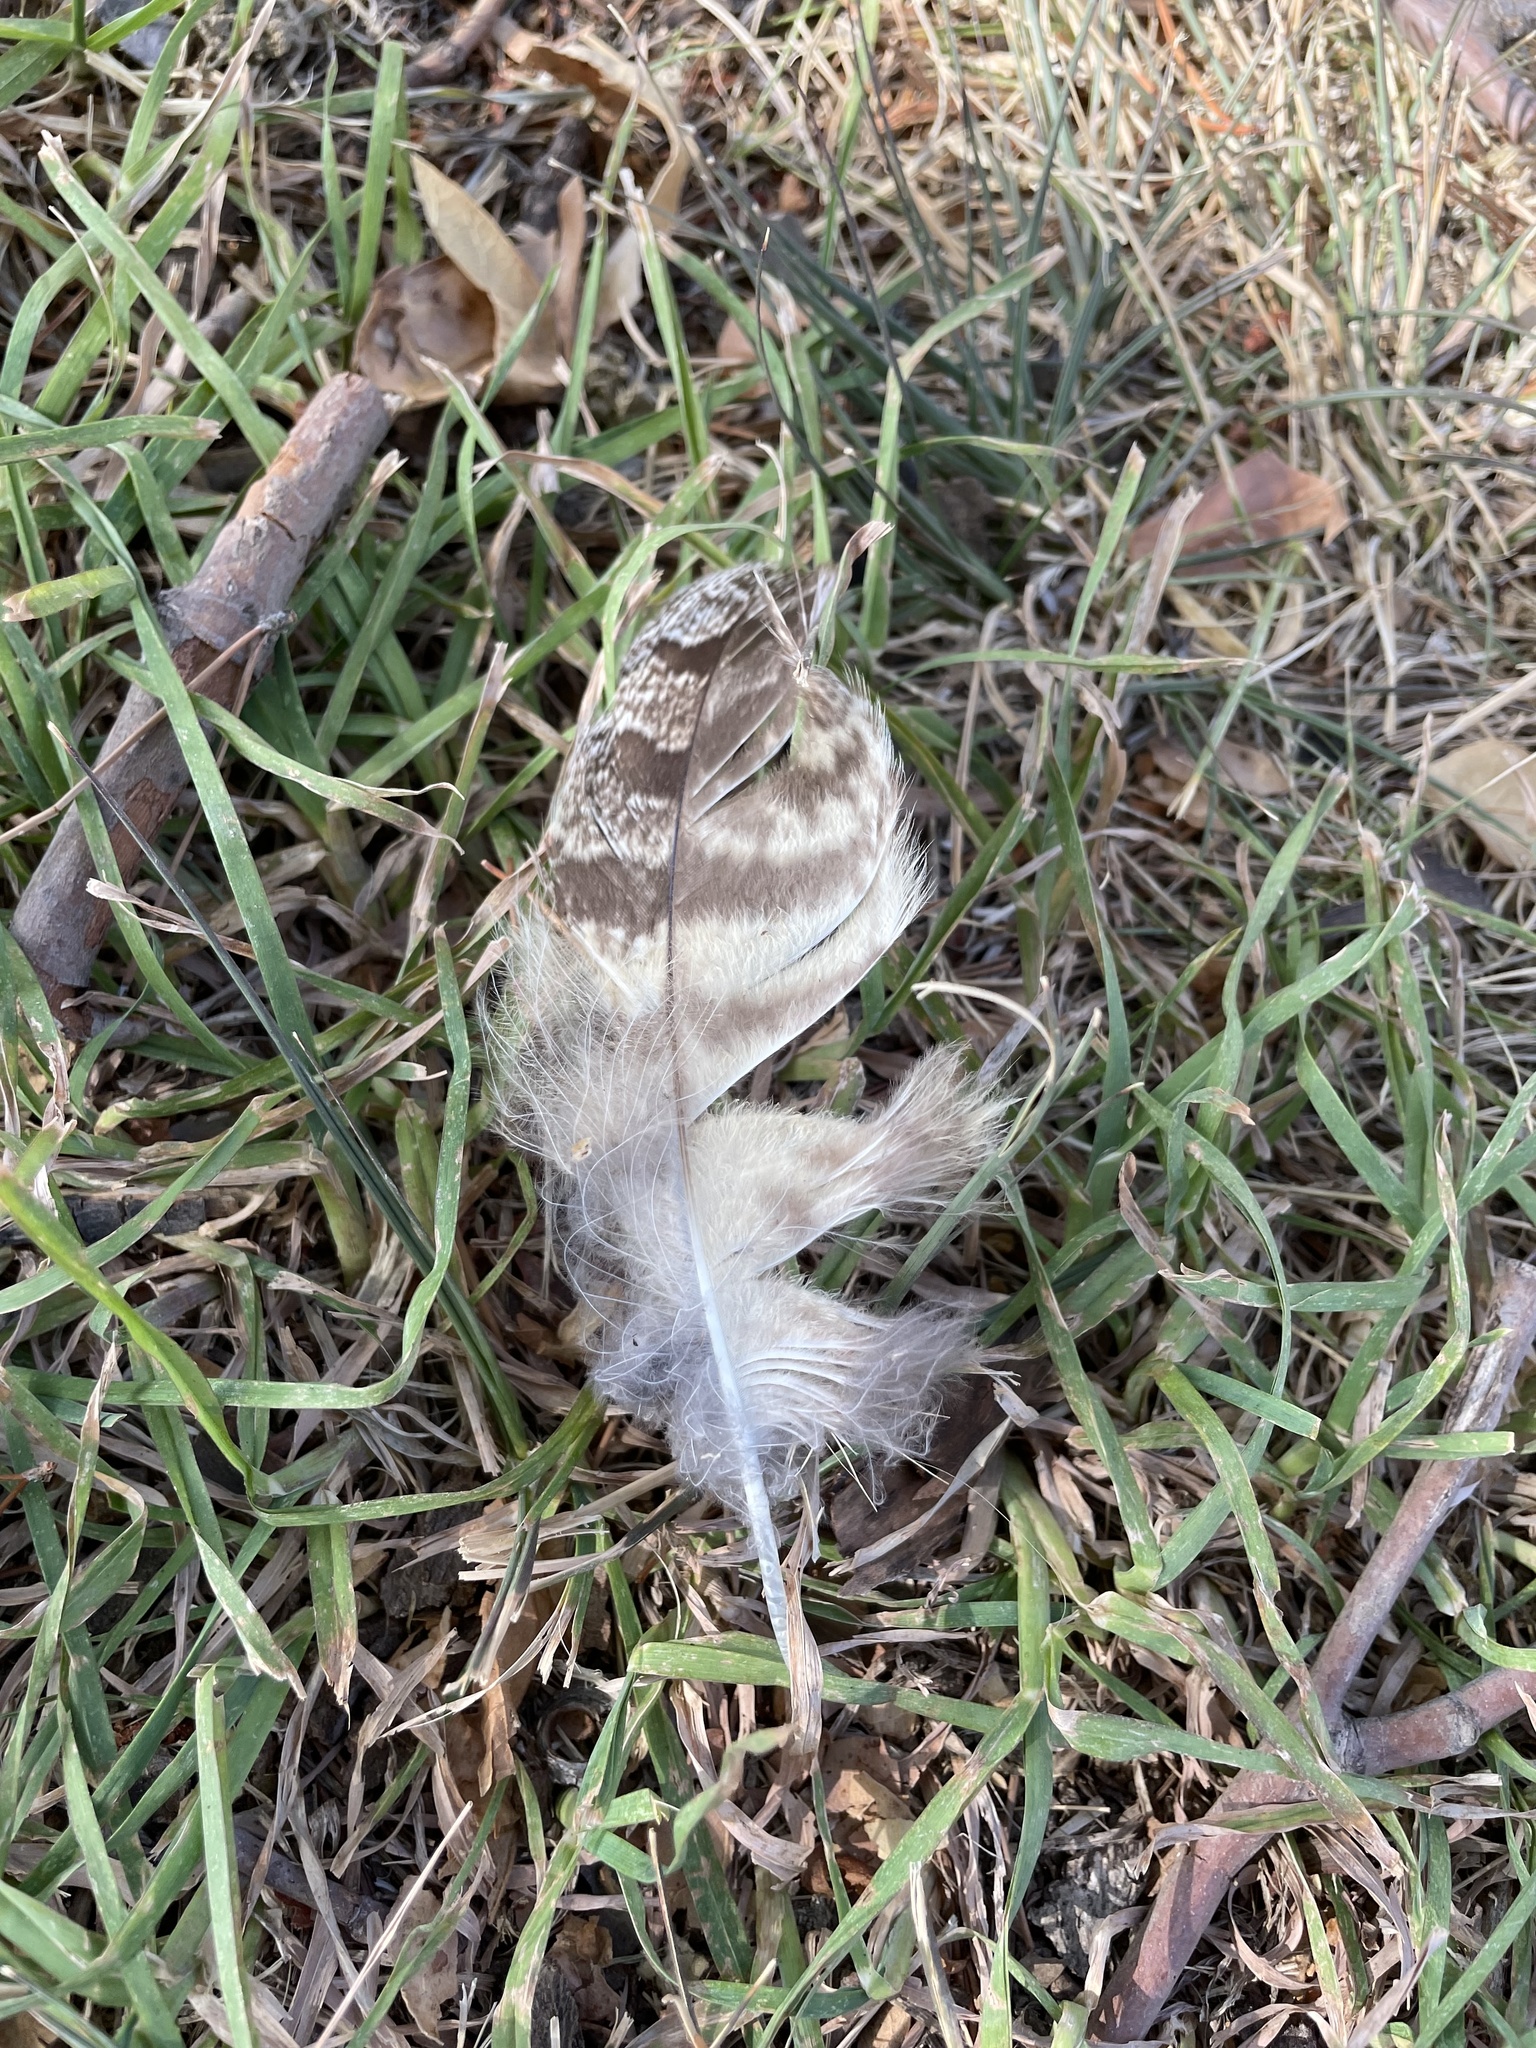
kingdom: Animalia
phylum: Chordata
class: Aves
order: Strigiformes
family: Strigidae
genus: Bubo
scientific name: Bubo virginianus
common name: Great horned owl
